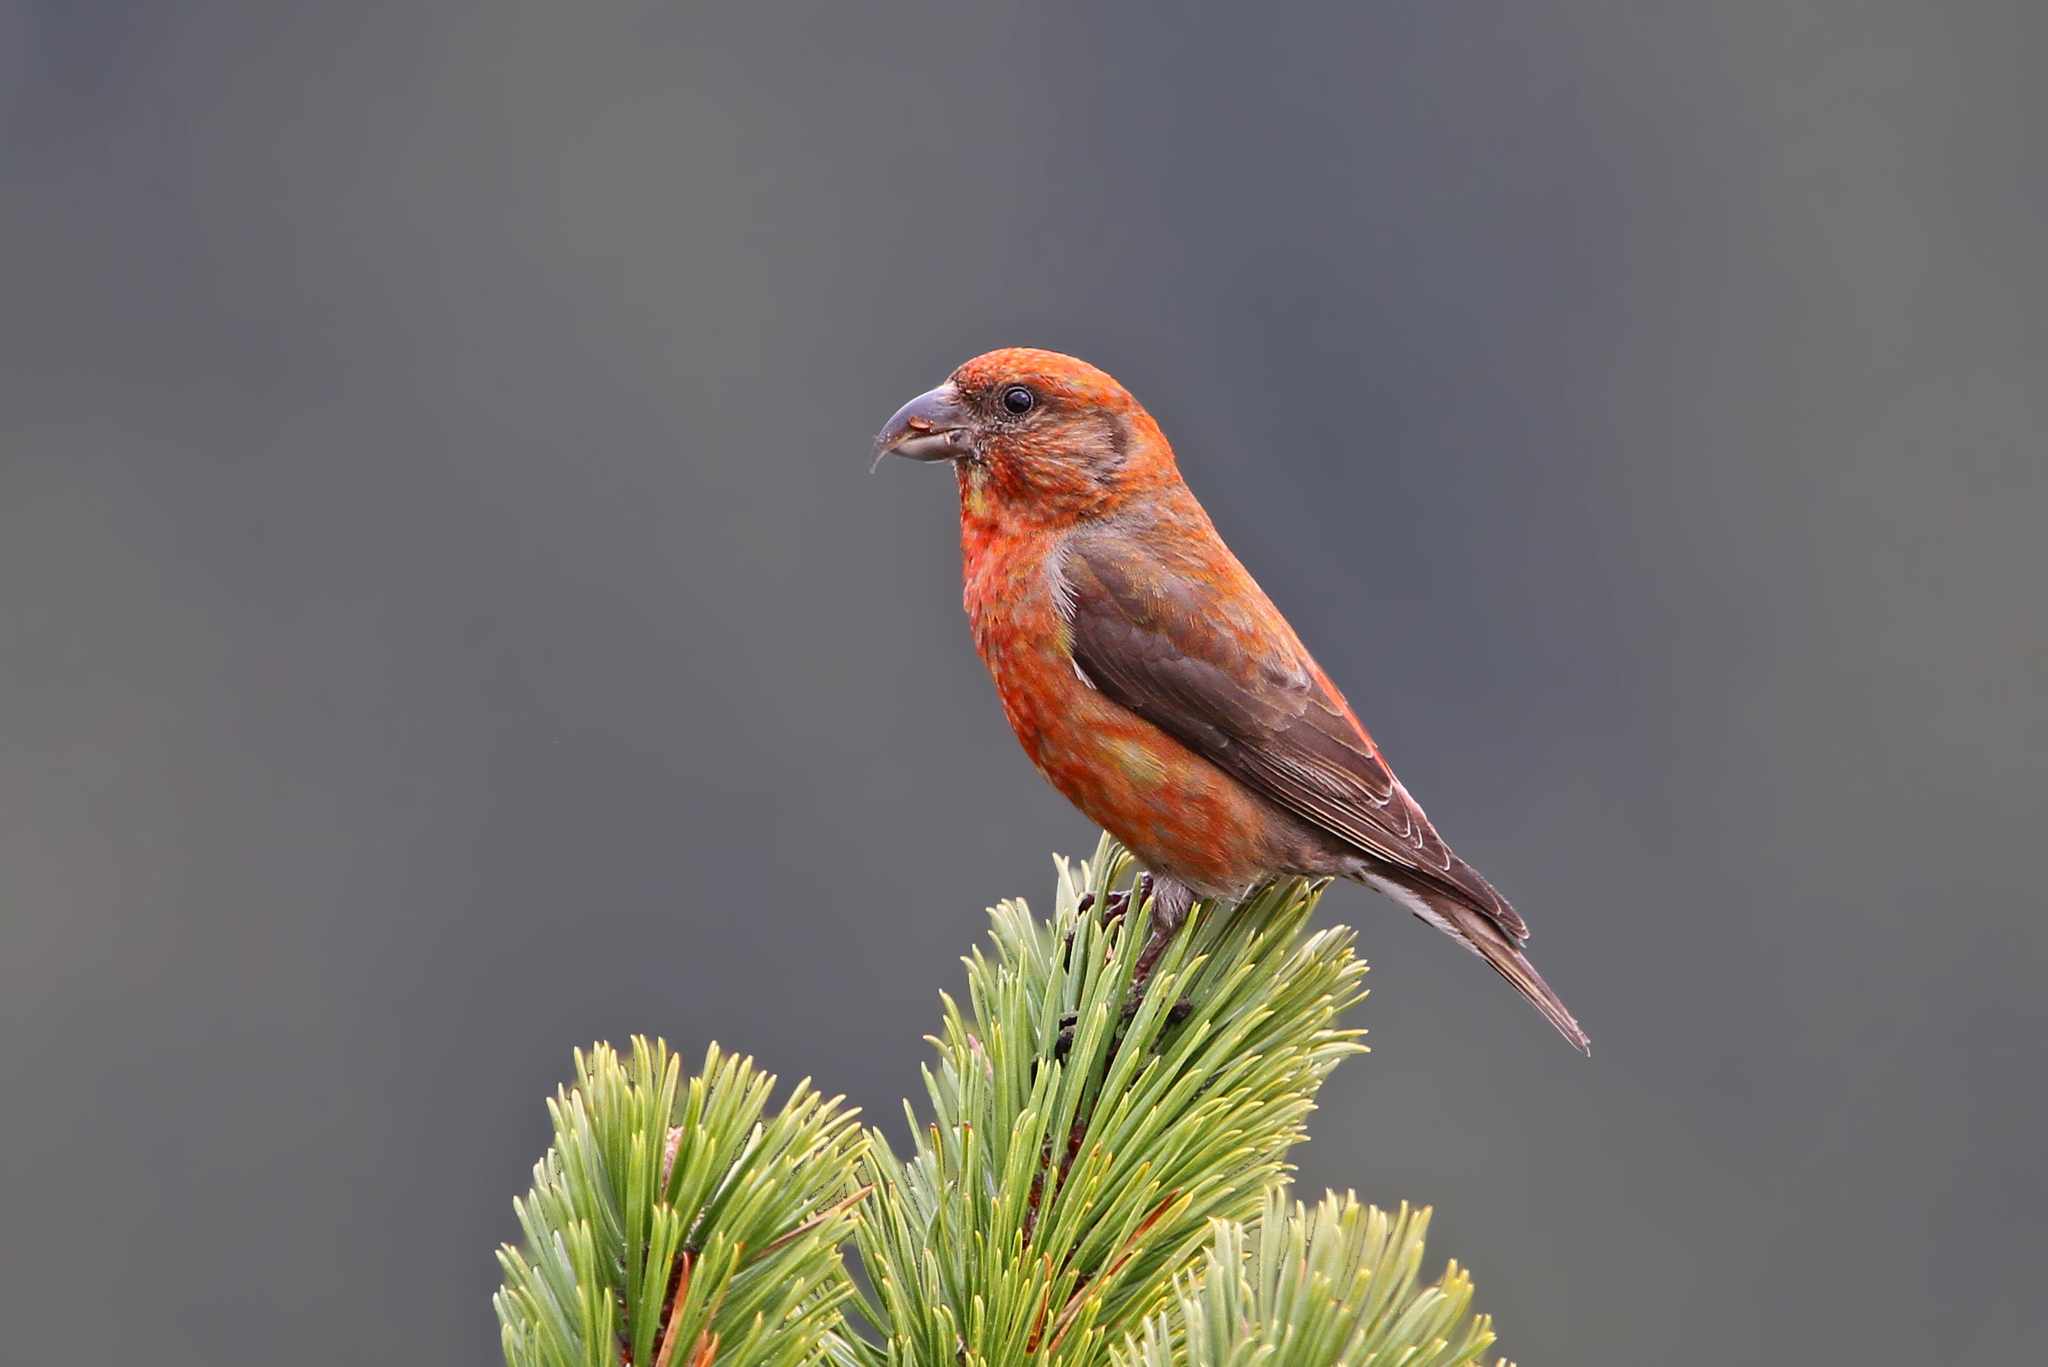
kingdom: Animalia
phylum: Chordata
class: Aves
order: Passeriformes
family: Fringillidae
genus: Loxia
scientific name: Loxia curvirostra
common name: Red crossbill
